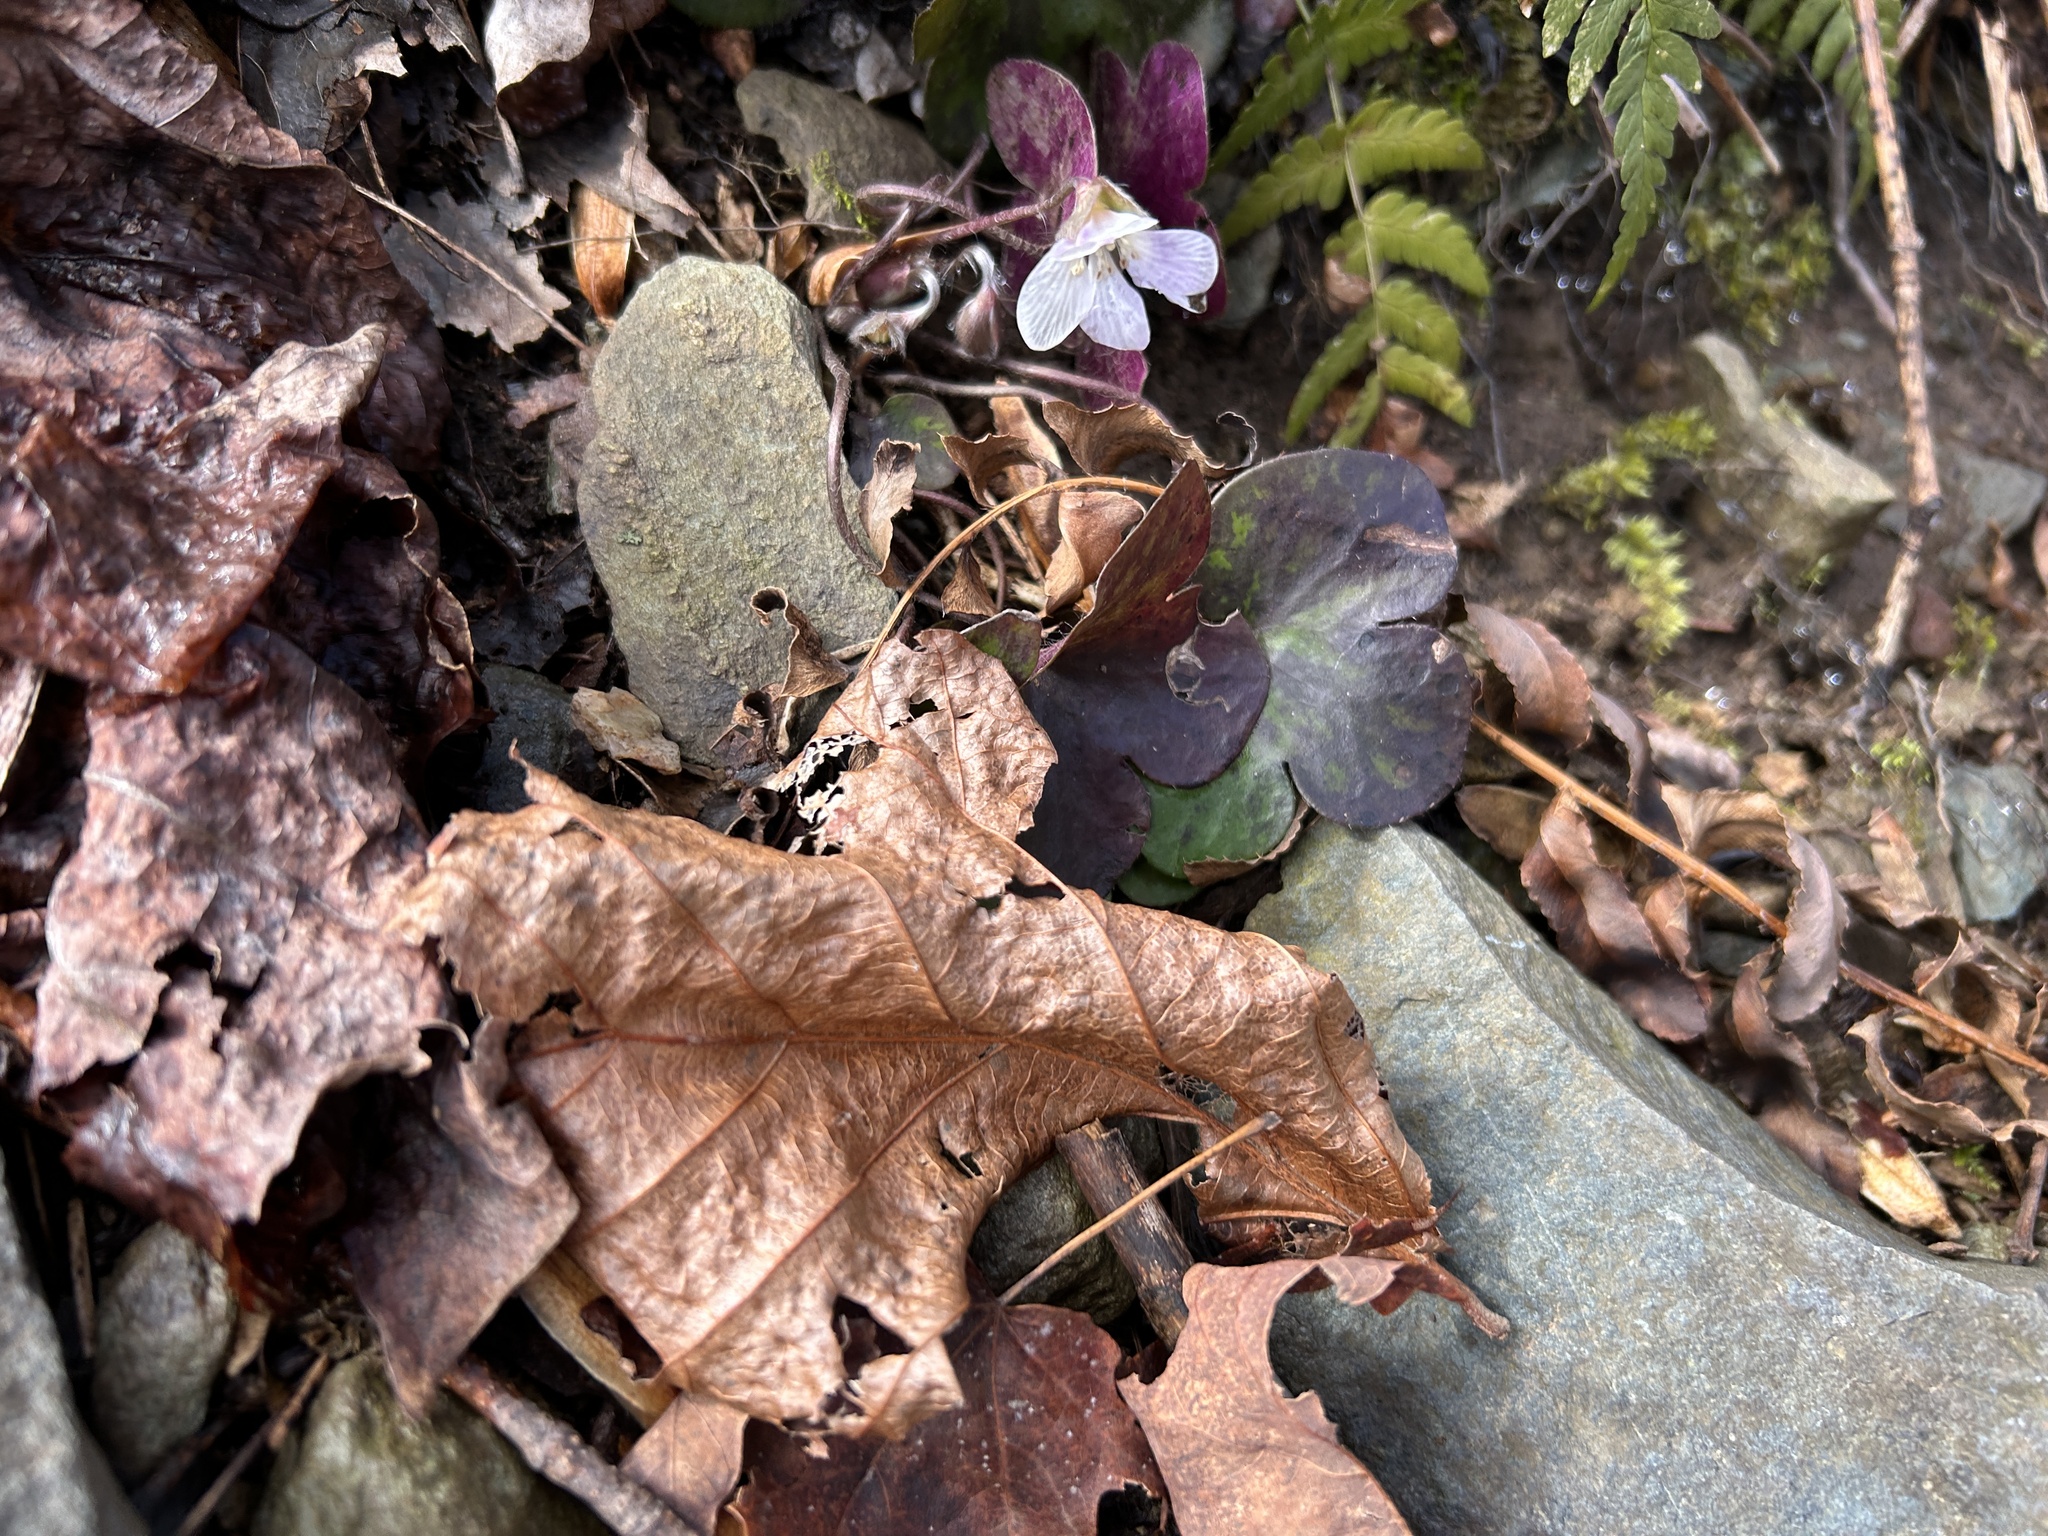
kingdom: Plantae
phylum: Tracheophyta
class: Magnoliopsida
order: Ranunculales
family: Ranunculaceae
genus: Hepatica
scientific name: Hepatica americana
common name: American hepatica
